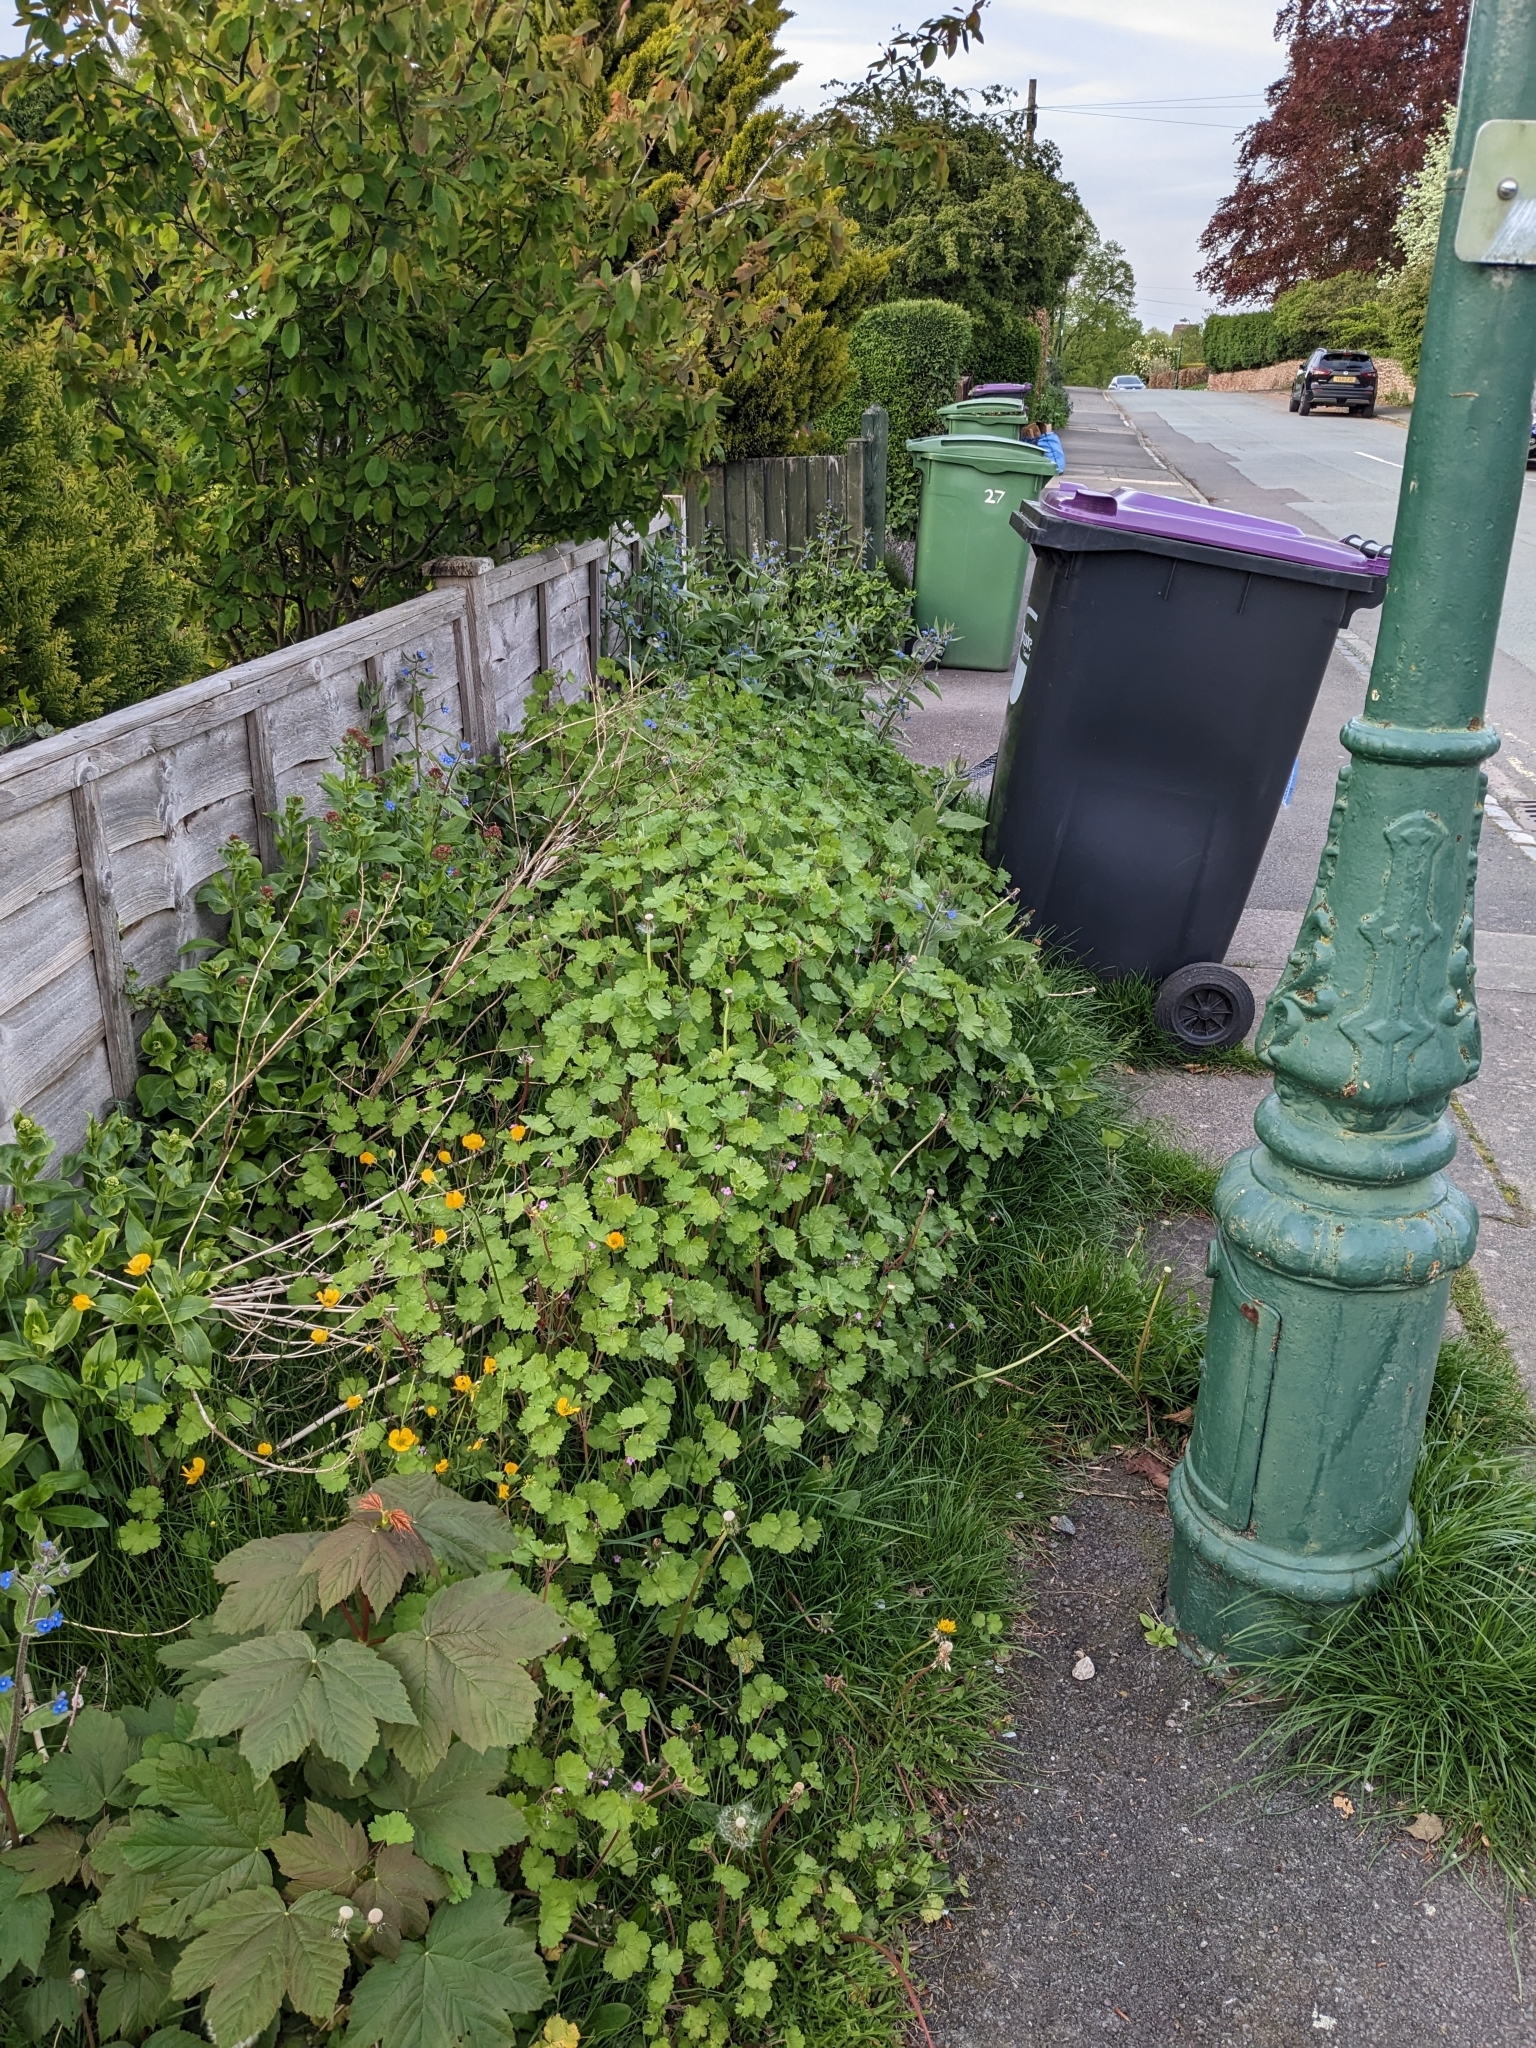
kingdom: Plantae
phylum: Tracheophyta
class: Magnoliopsida
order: Geraniales
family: Geraniaceae
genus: Geranium
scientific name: Geranium rotundifolium
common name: Round-leaved crane's-bill
